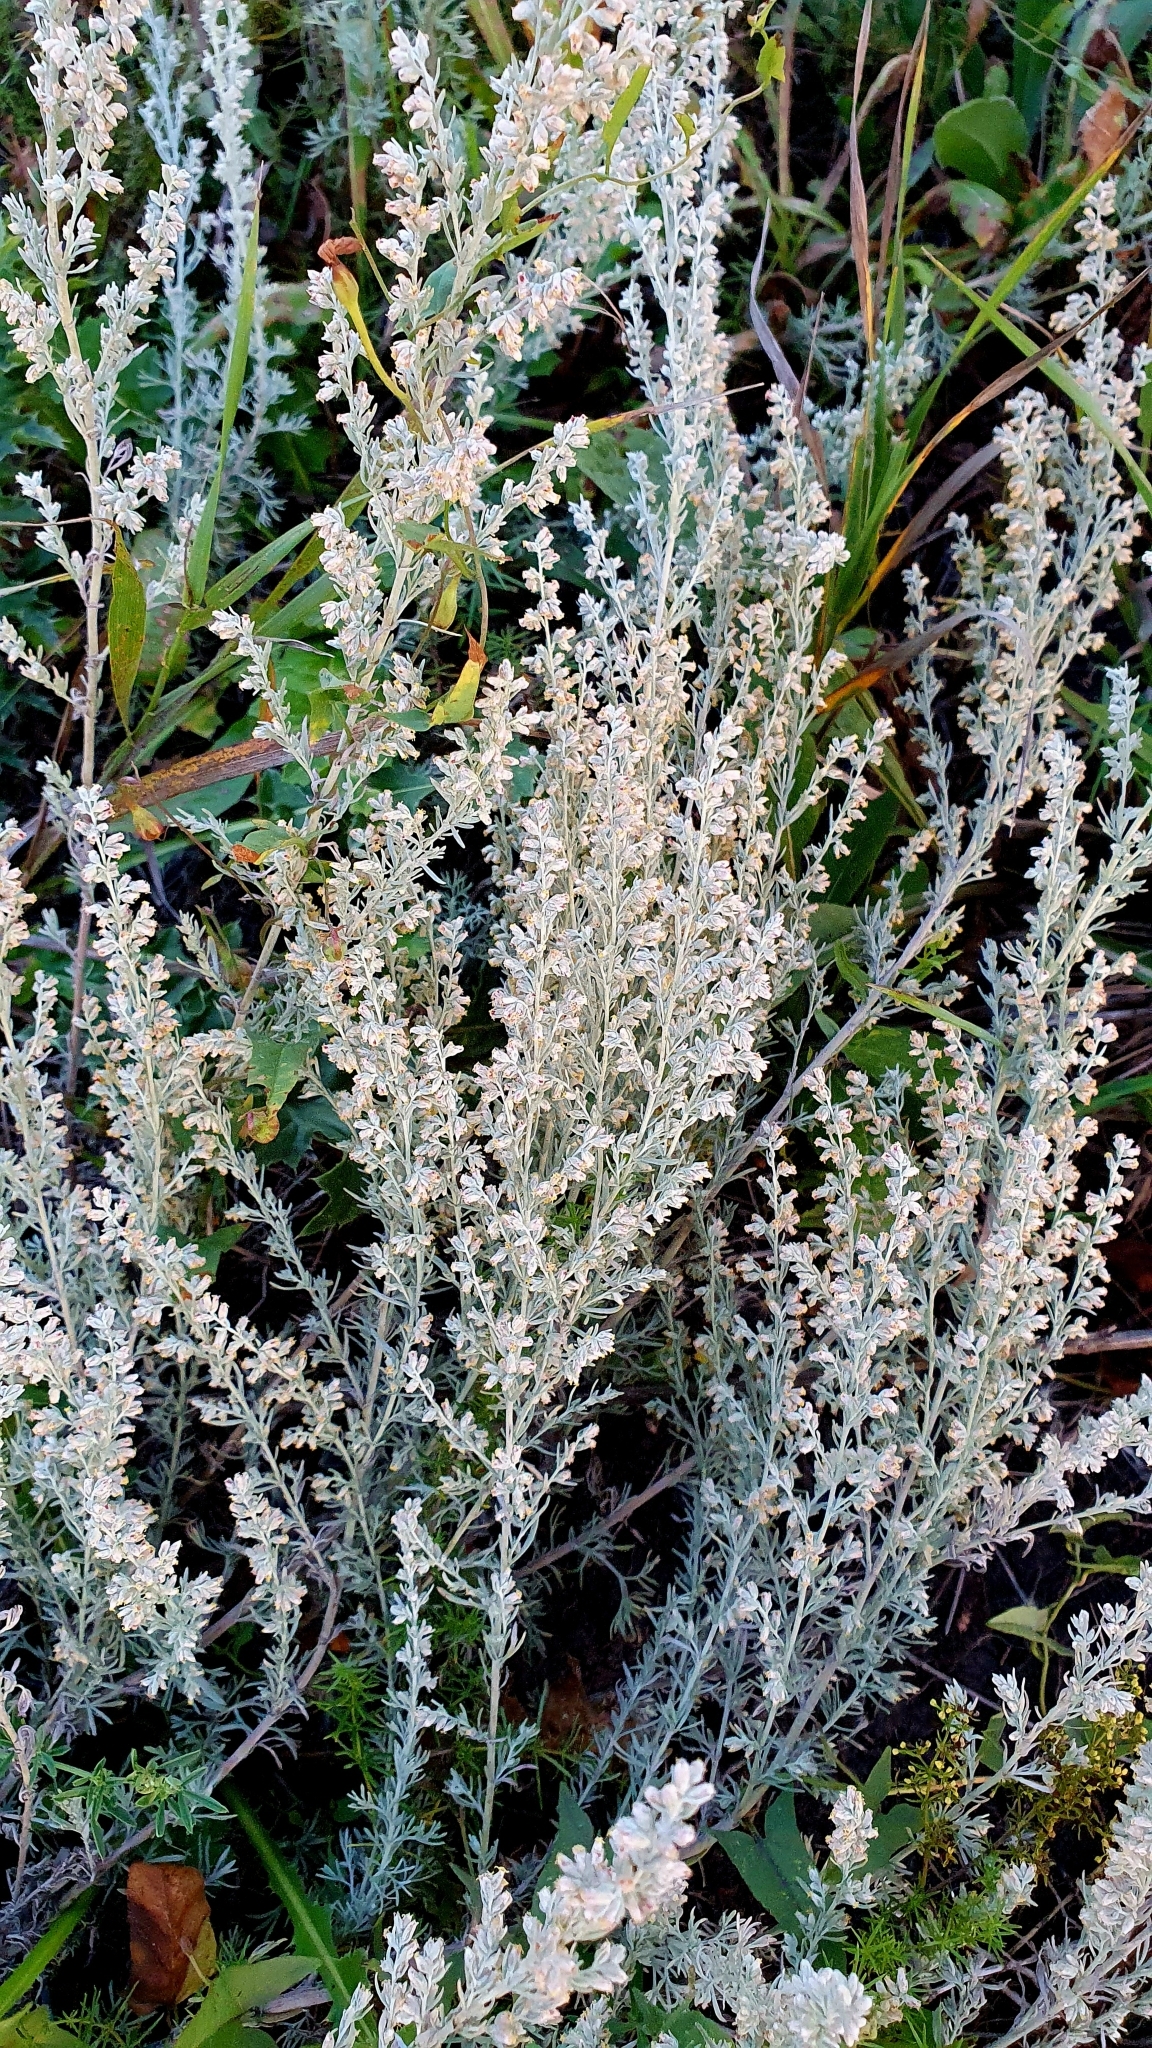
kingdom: Plantae
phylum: Tracheophyta
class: Magnoliopsida
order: Asterales
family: Asteraceae
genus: Artemisia
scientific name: Artemisia austriaca
